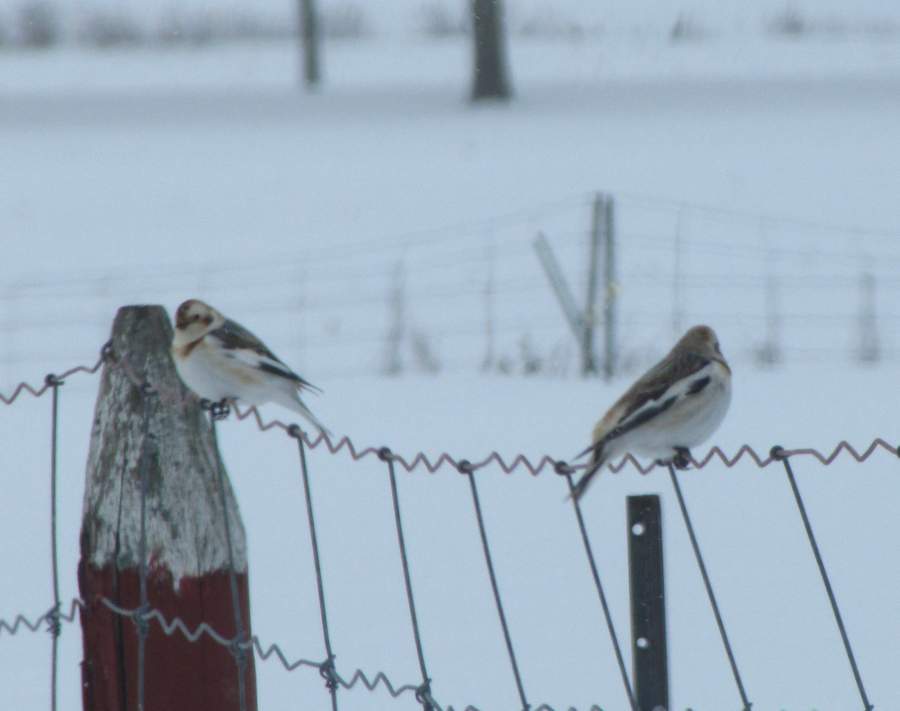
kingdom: Animalia
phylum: Chordata
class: Aves
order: Passeriformes
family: Calcariidae
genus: Plectrophenax
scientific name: Plectrophenax nivalis
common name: Snow bunting
